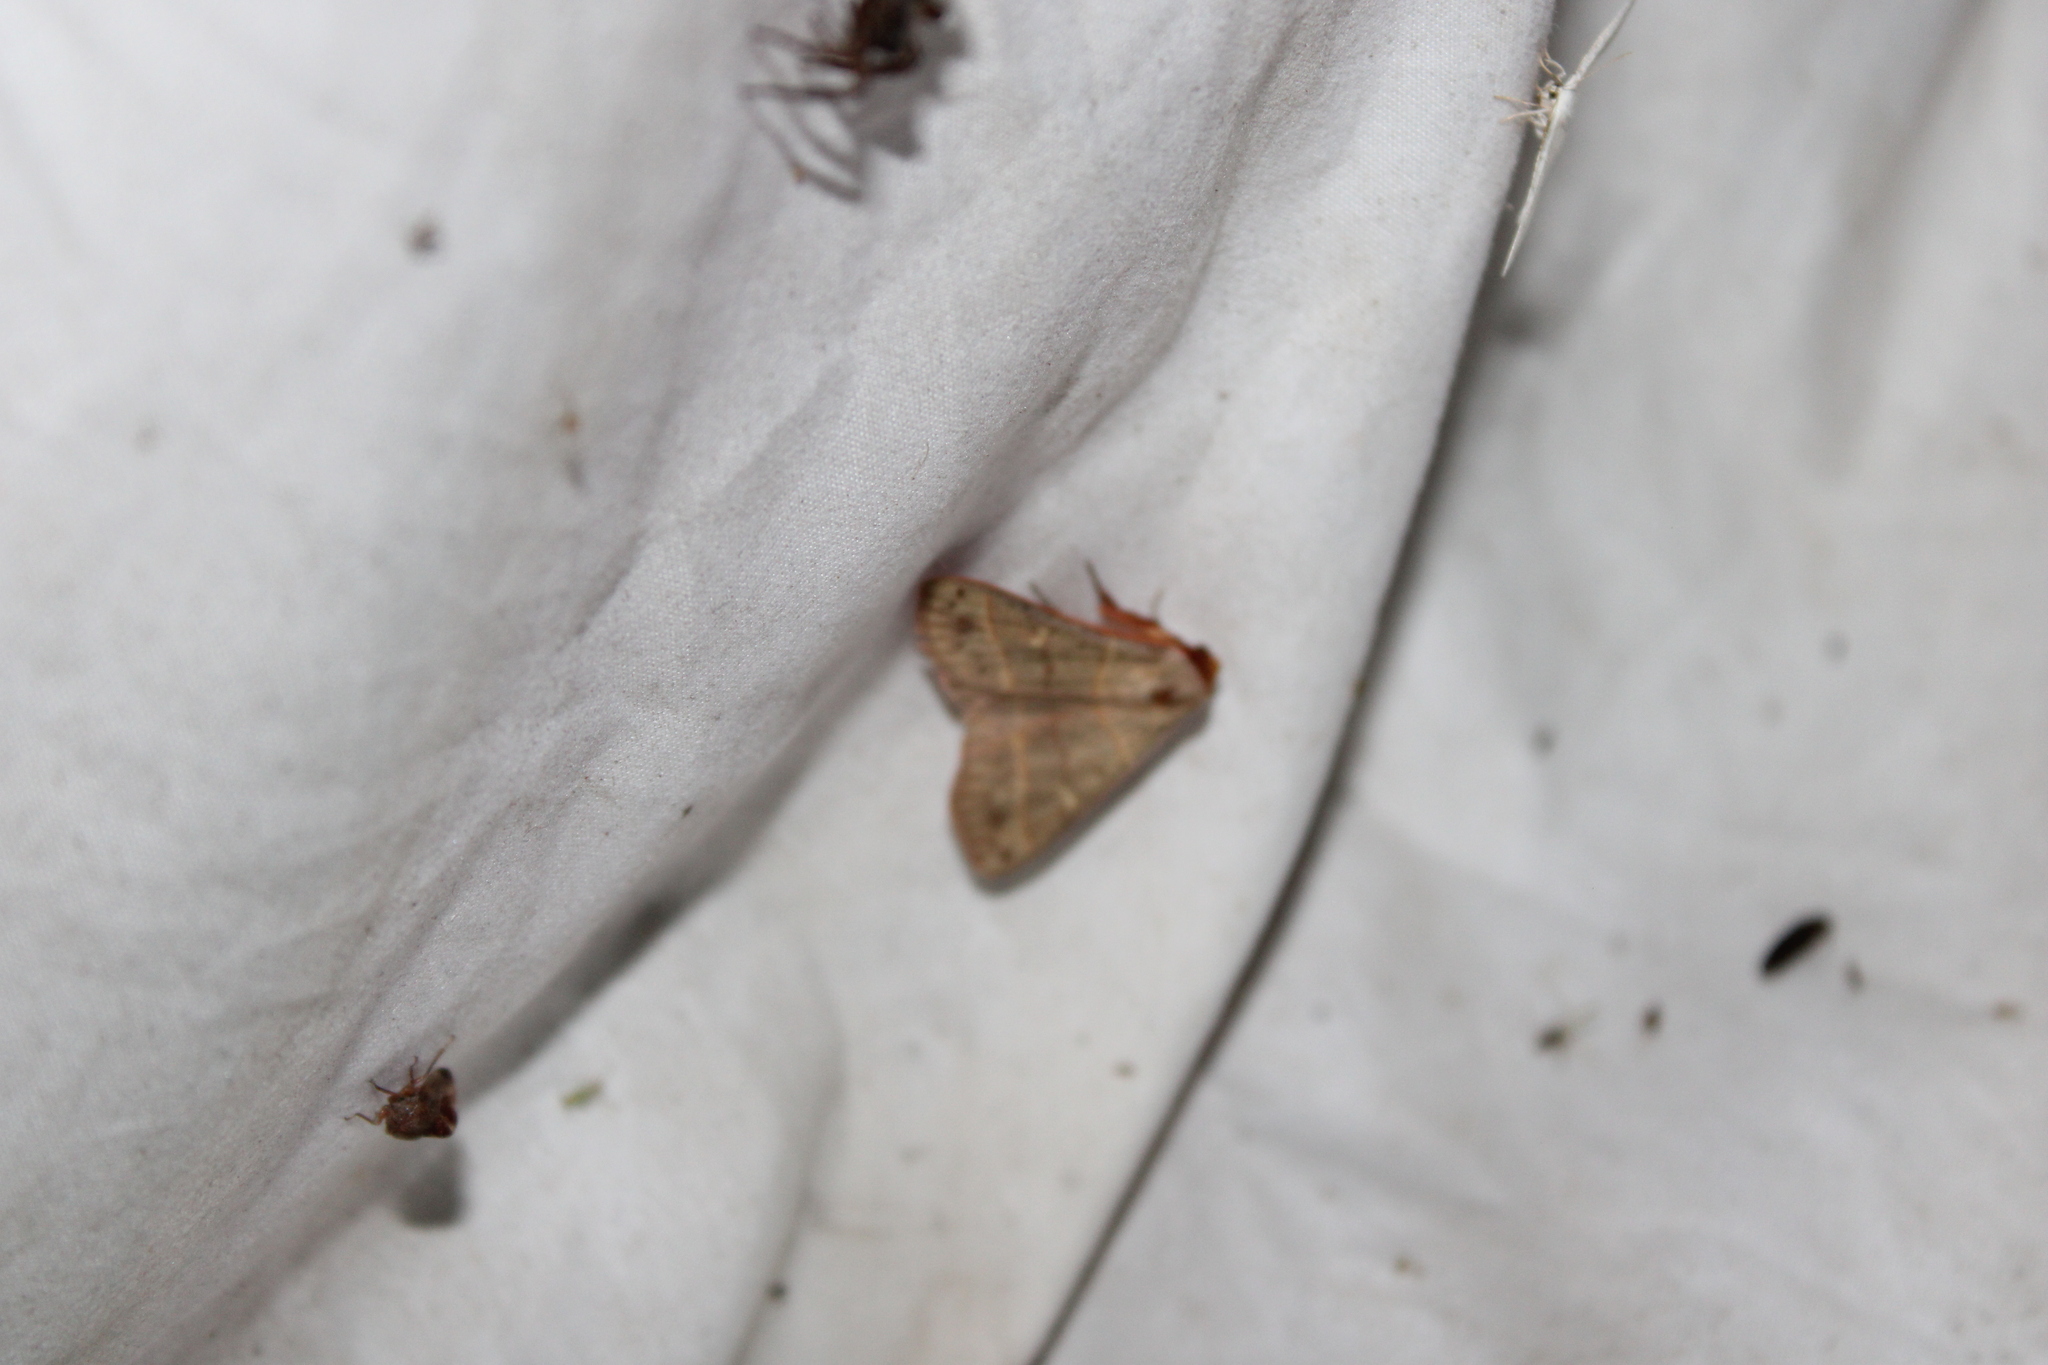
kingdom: Animalia
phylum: Arthropoda
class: Insecta
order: Lepidoptera
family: Erebidae
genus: Panopoda
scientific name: Panopoda rufimargo
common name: Red-lined panopoda moth
